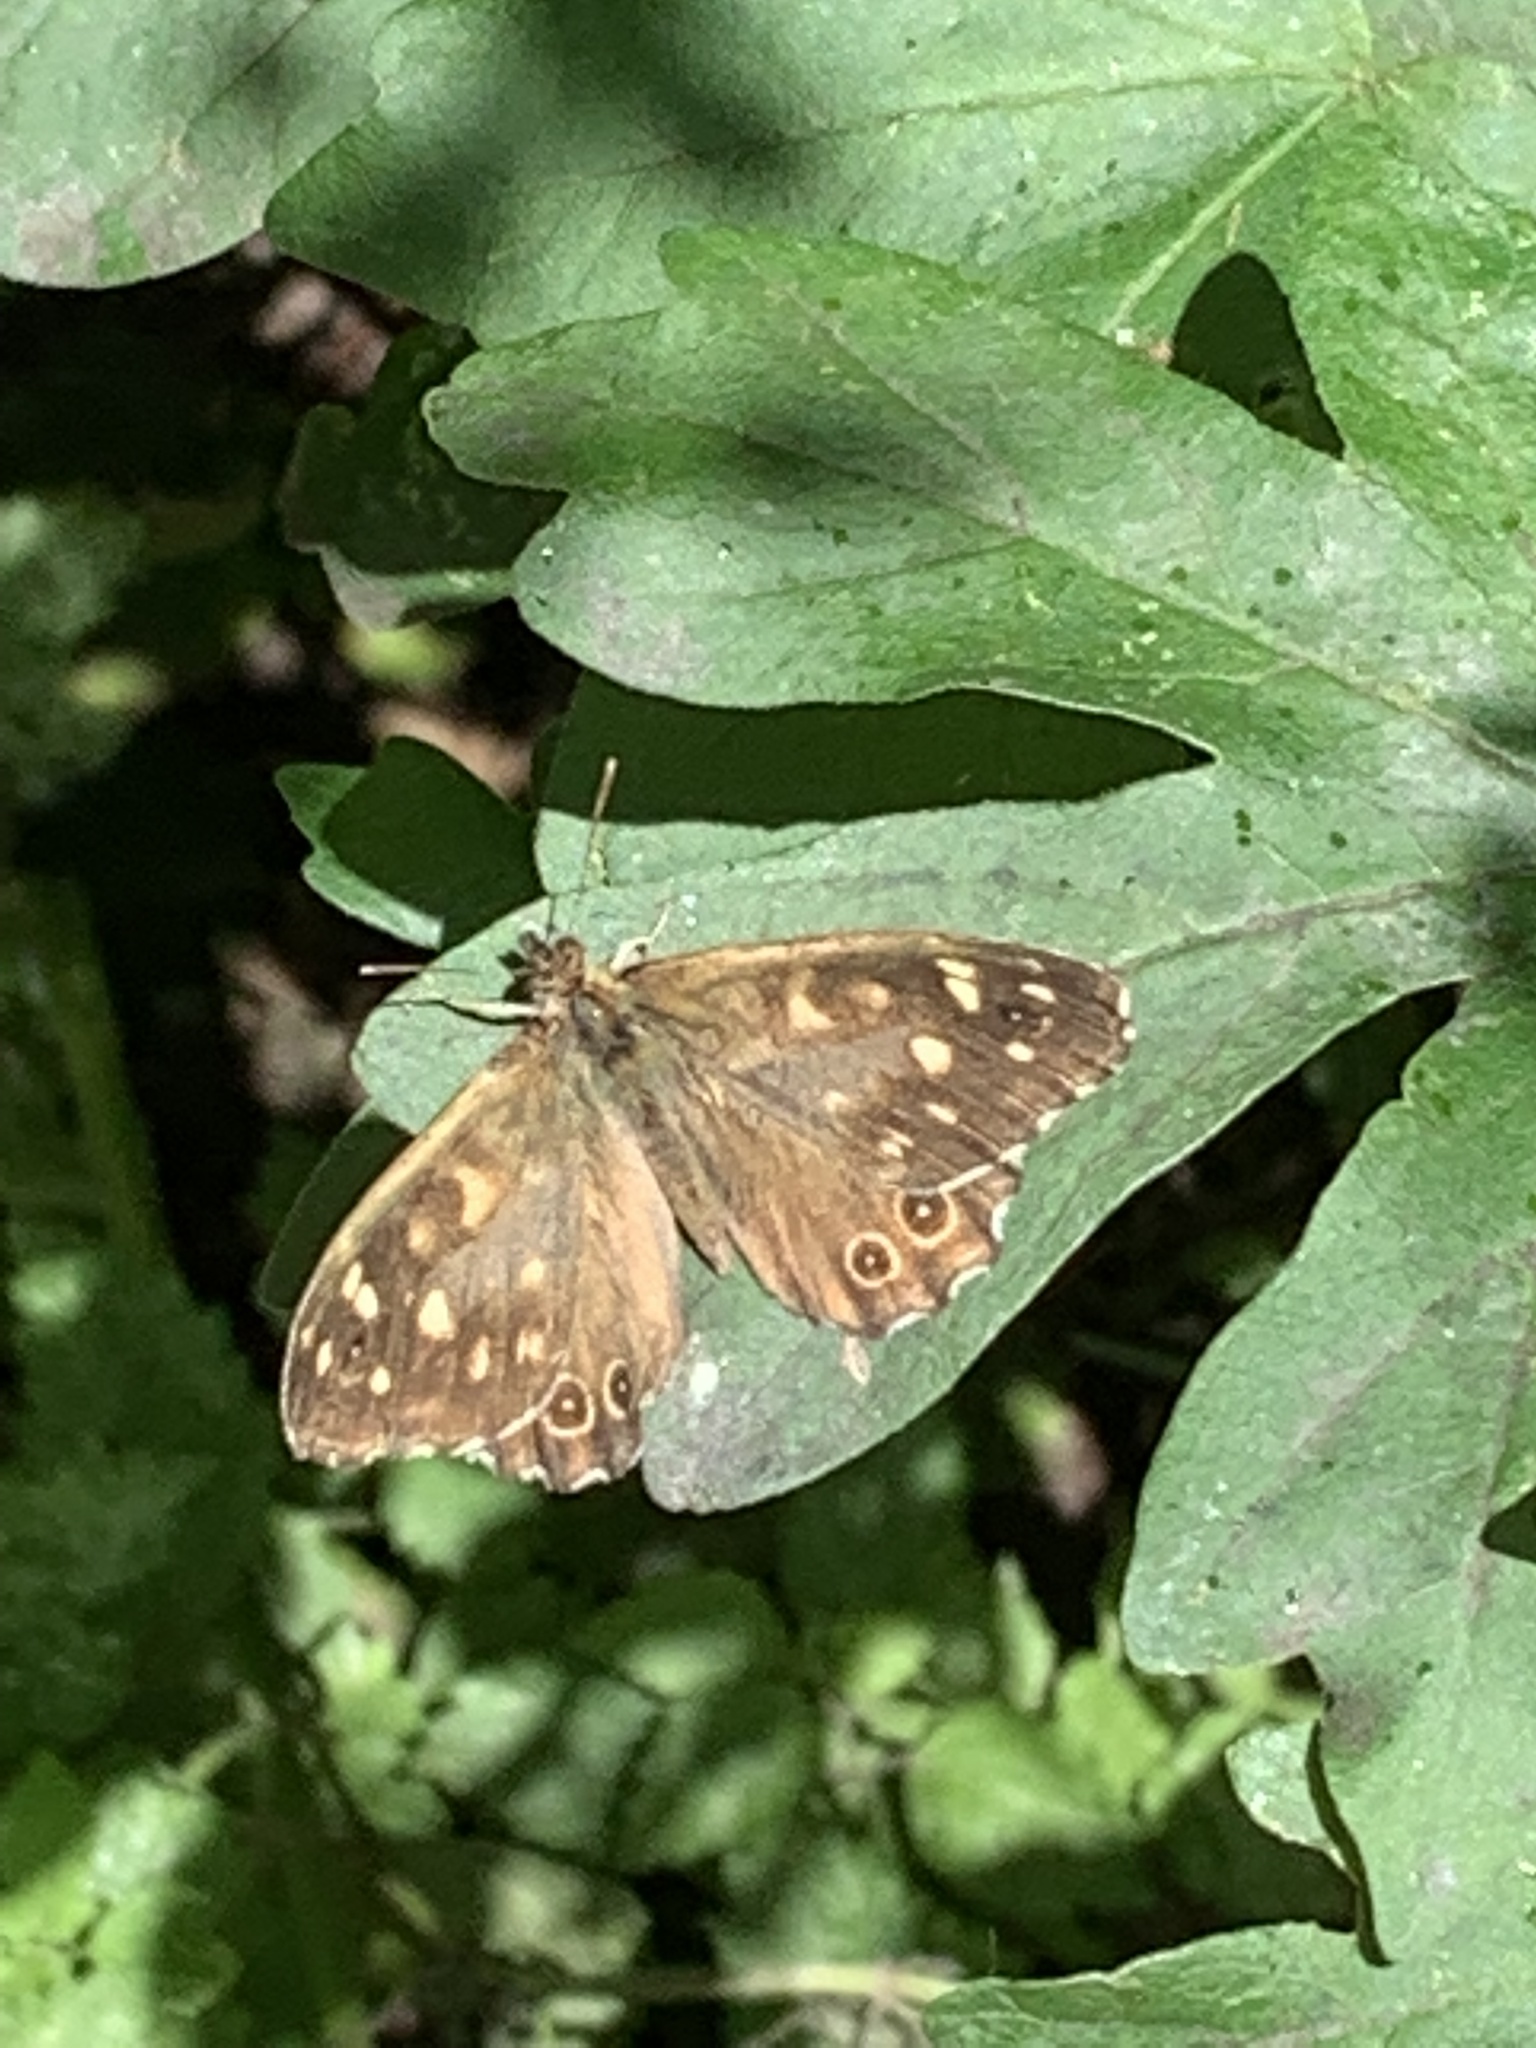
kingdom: Animalia
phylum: Arthropoda
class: Insecta
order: Lepidoptera
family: Nymphalidae
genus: Pararge
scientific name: Pararge aegeria
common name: Speckled wood
